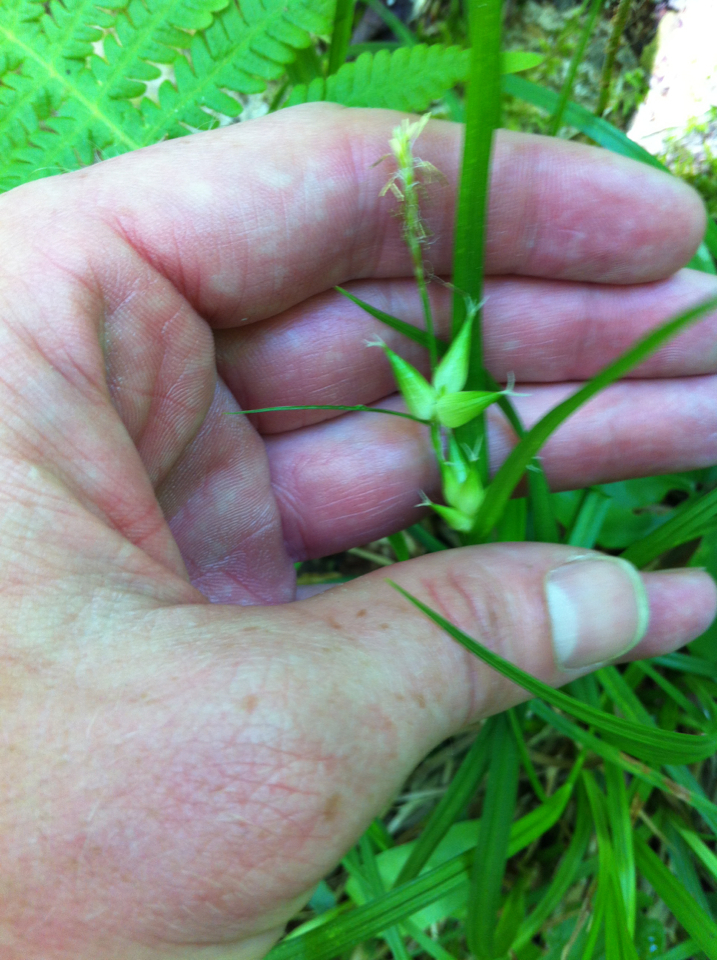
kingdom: Plantae
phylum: Tracheophyta
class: Liliopsida
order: Poales
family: Cyperaceae
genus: Carex
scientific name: Carex intumescens
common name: Greater bladder sedge
